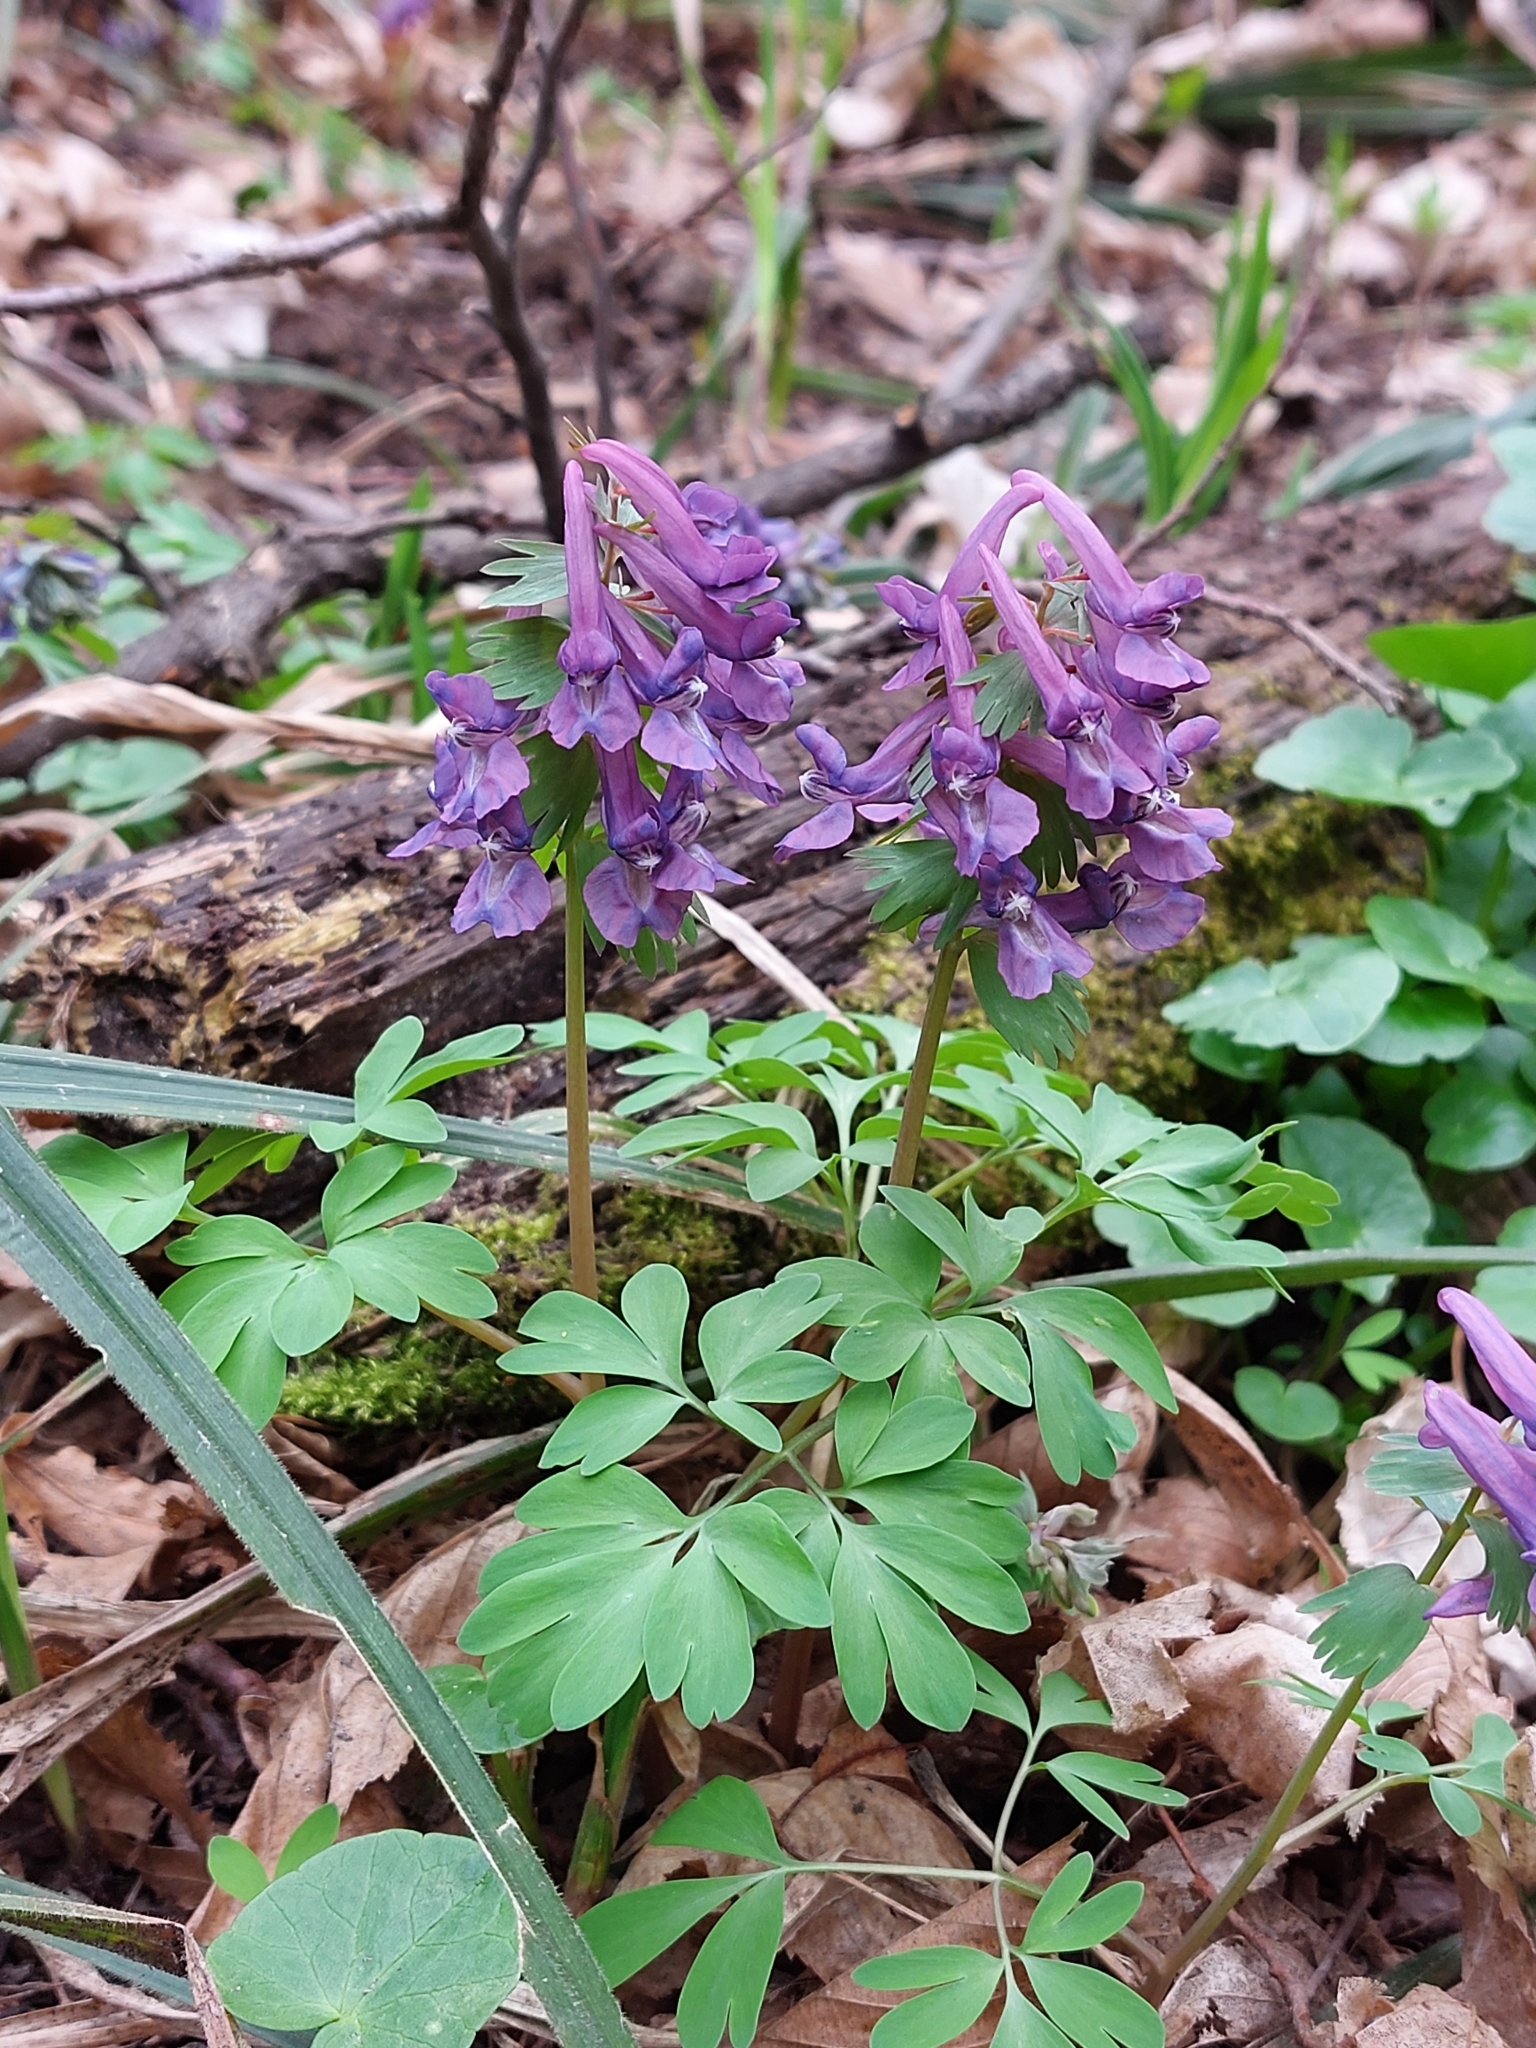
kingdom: Plantae
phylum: Tracheophyta
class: Magnoliopsida
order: Ranunculales
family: Papaveraceae
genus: Corydalis
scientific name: Corydalis solida
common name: Bird-in-a-bush
